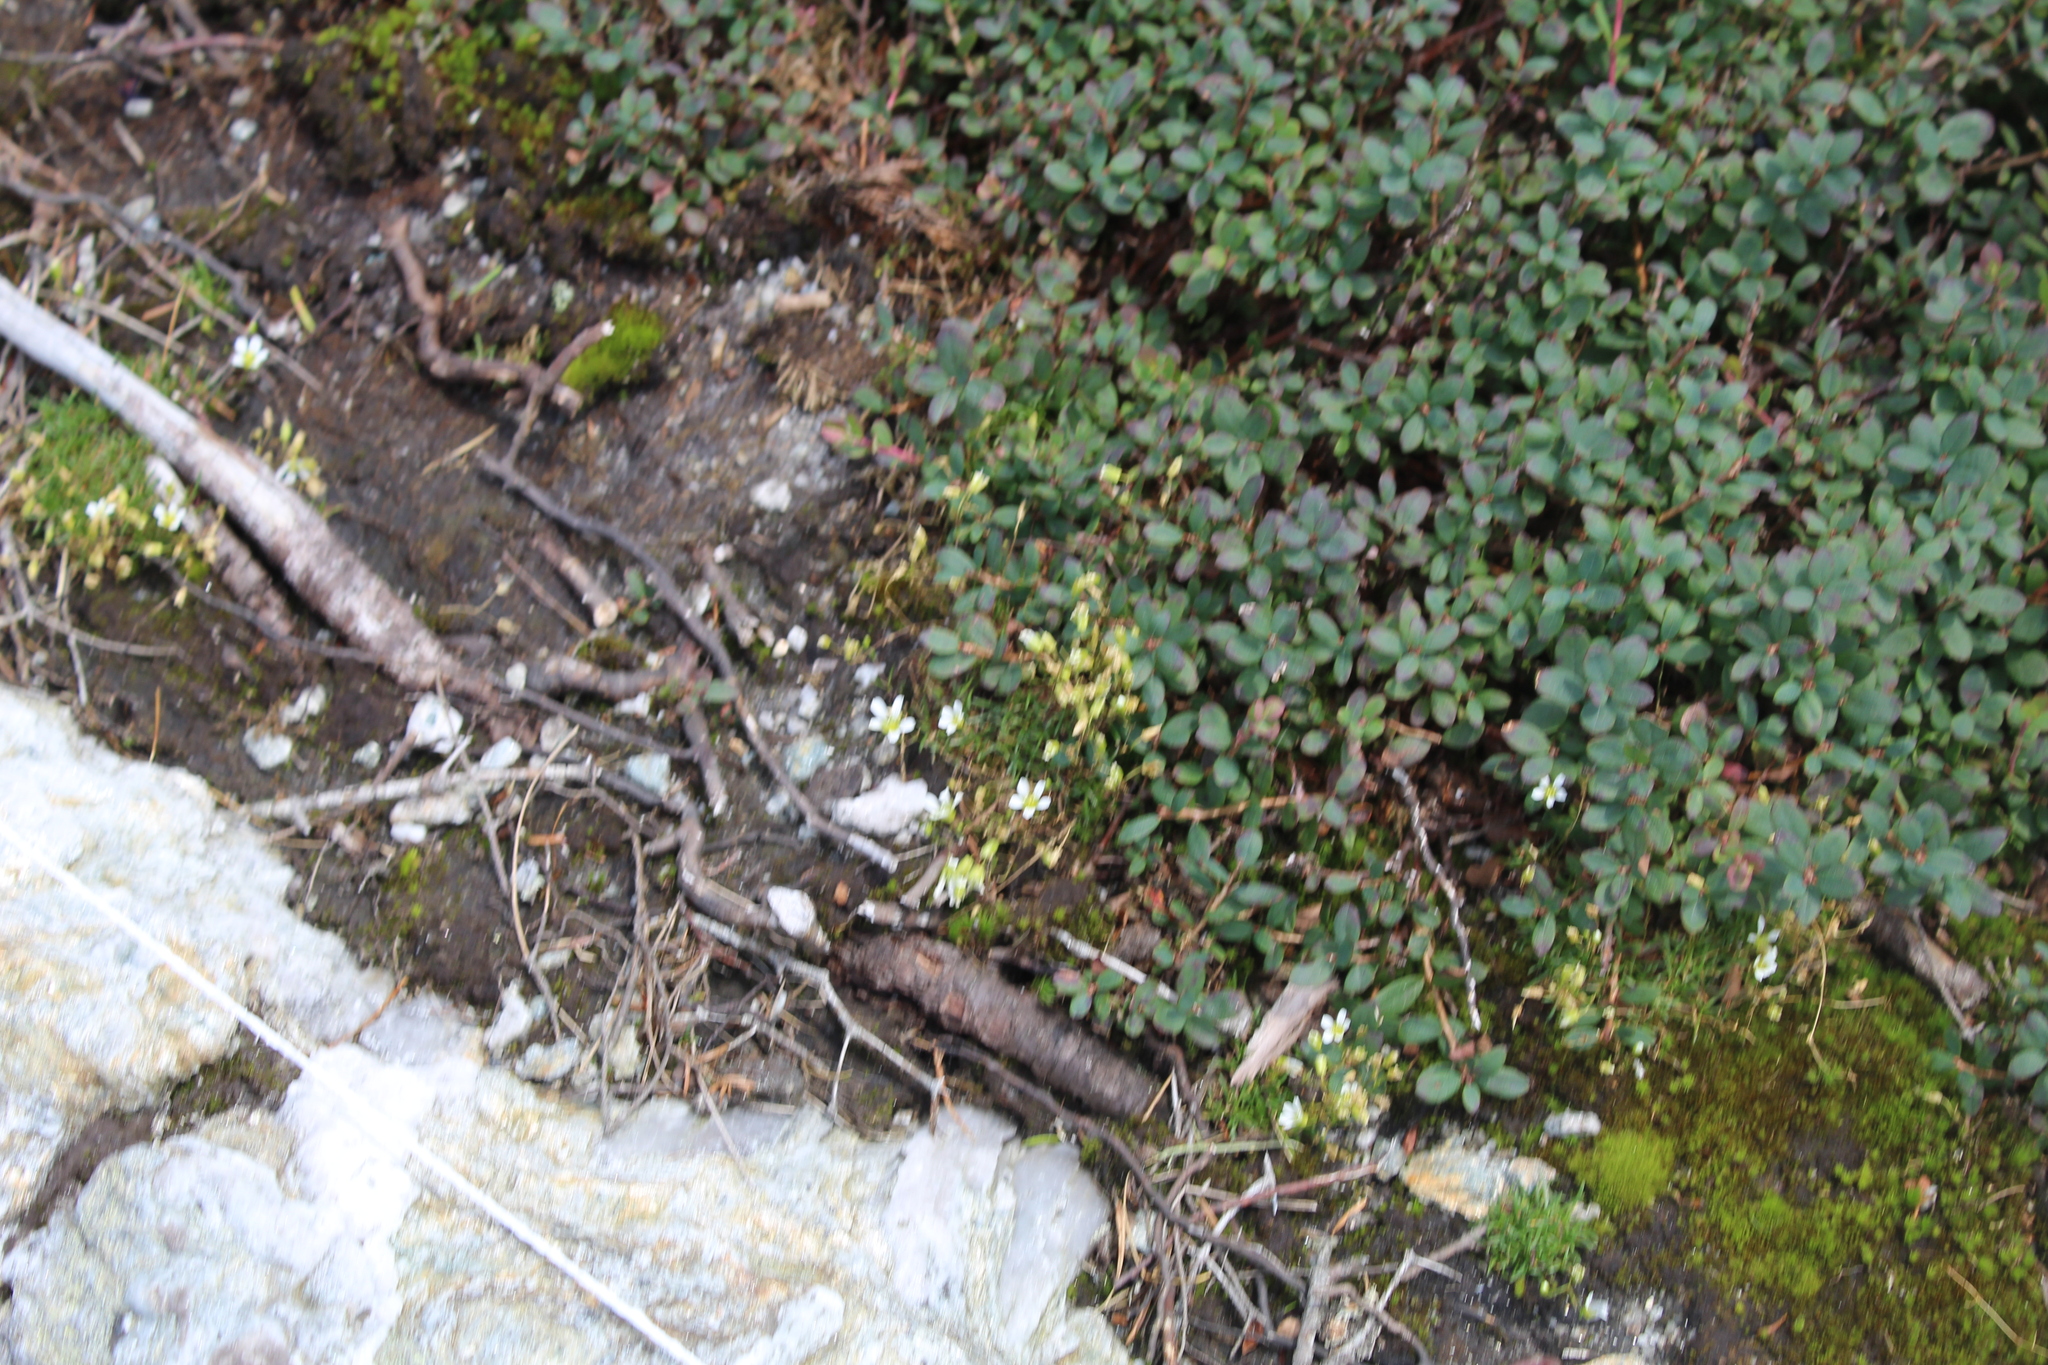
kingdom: Plantae
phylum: Tracheophyta
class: Magnoliopsida
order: Caryophyllales
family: Caryophyllaceae
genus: Geocarpon
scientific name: Geocarpon groenlandicum
